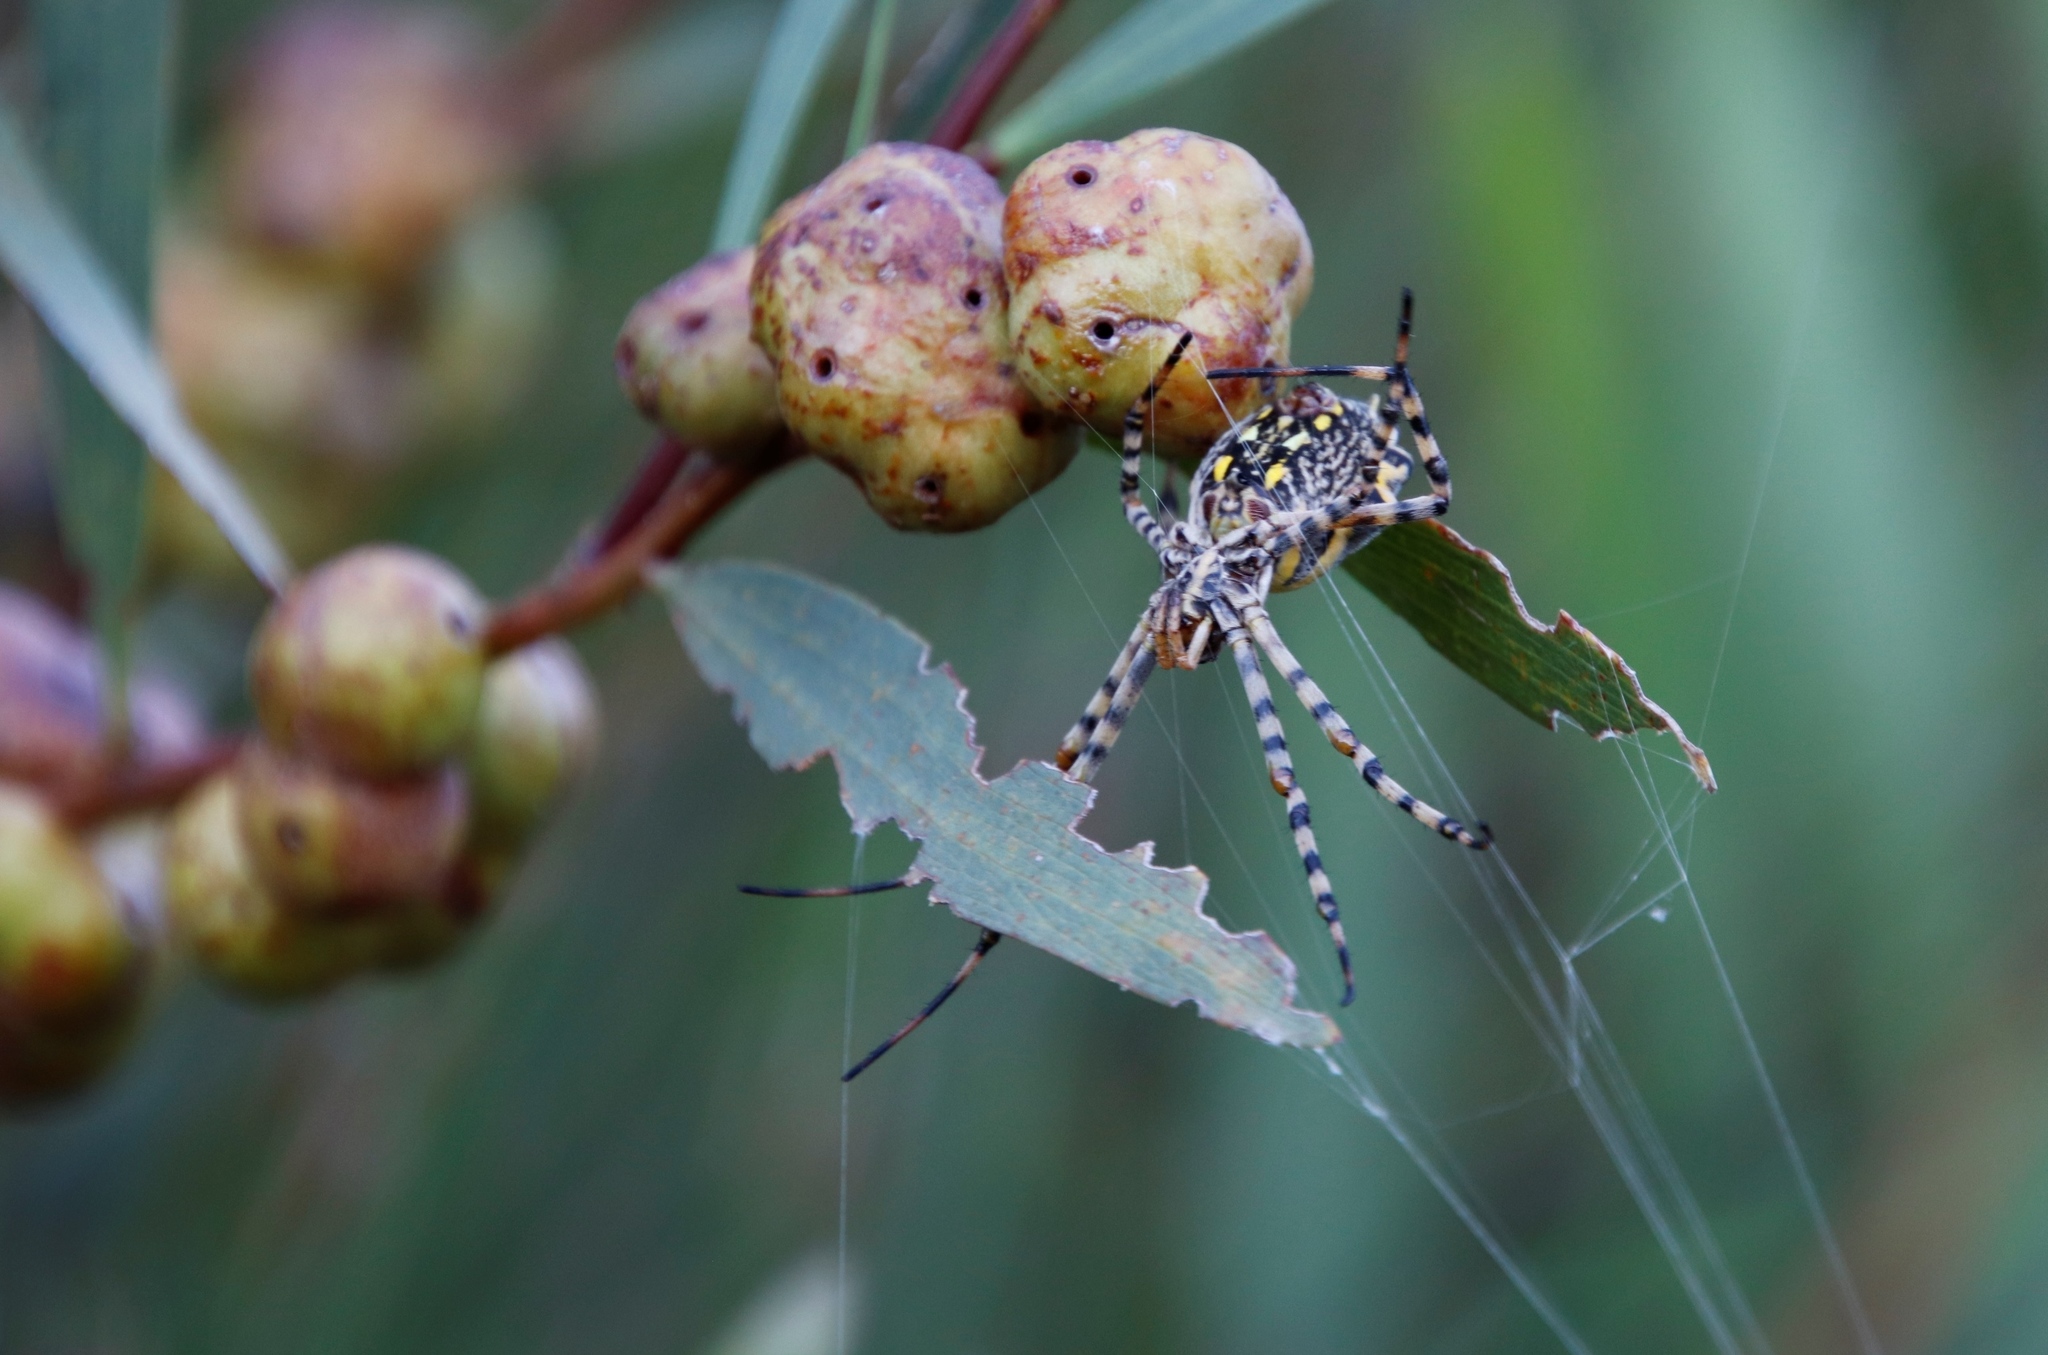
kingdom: Animalia
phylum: Arthropoda
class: Arachnida
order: Araneae
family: Araneidae
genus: Argiope
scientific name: Argiope australis
